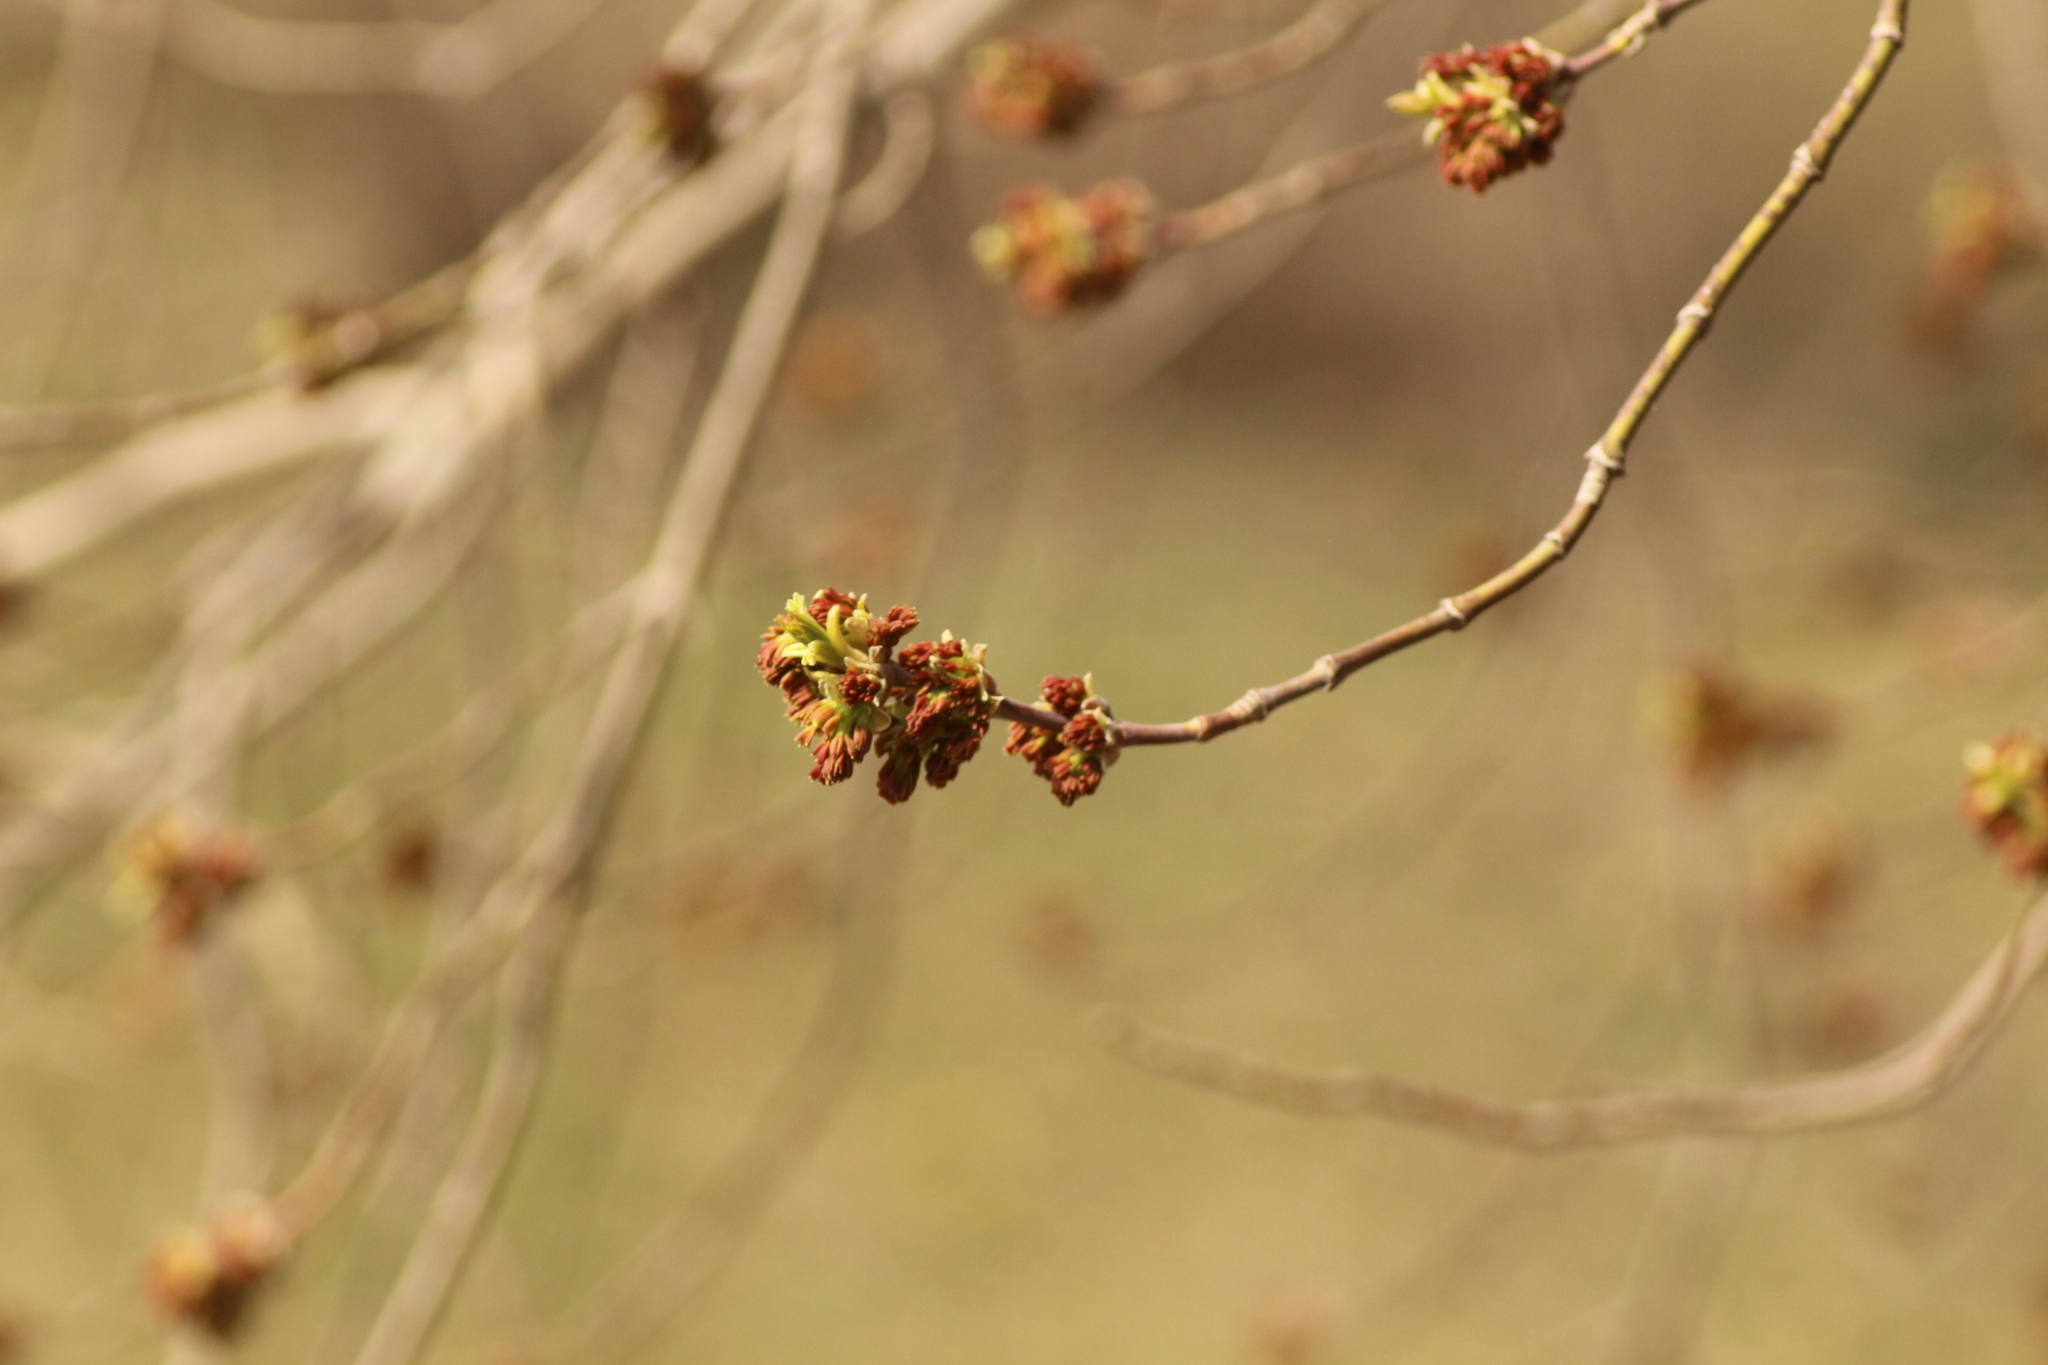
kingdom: Plantae
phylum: Tracheophyta
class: Magnoliopsida
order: Sapindales
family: Sapindaceae
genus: Acer
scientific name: Acer negundo
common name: Ashleaf maple
